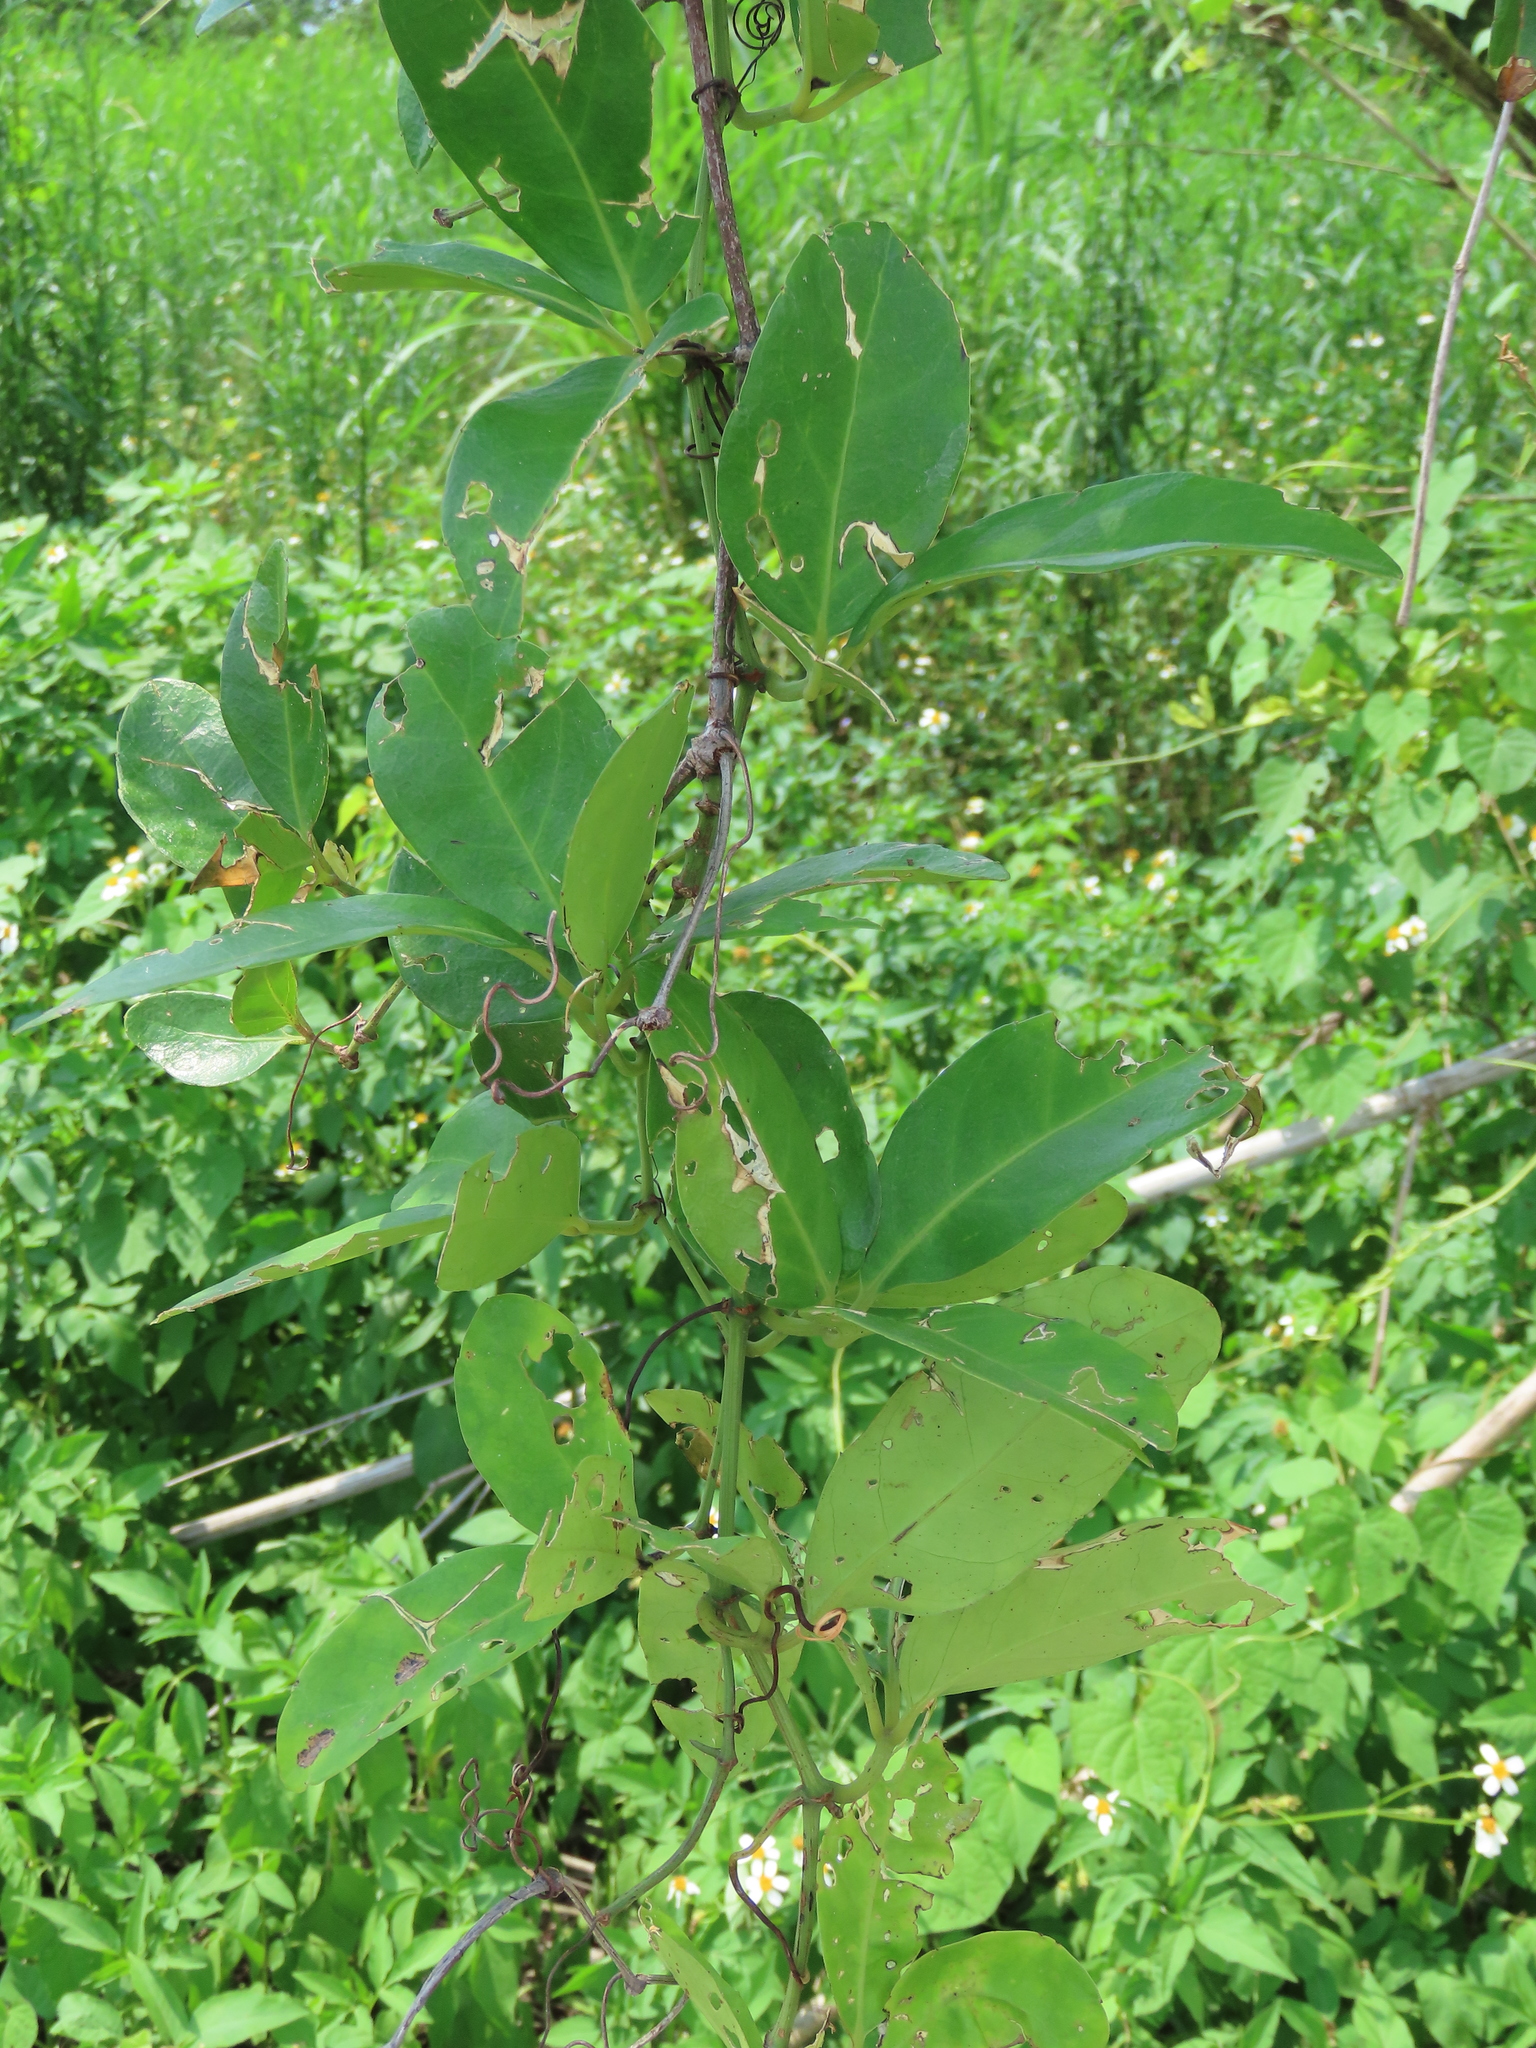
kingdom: Plantae
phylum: Tracheophyta
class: Magnoliopsida
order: Vitales
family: Vitaceae
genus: Tetrastigma
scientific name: Tetrastigma formosanum
